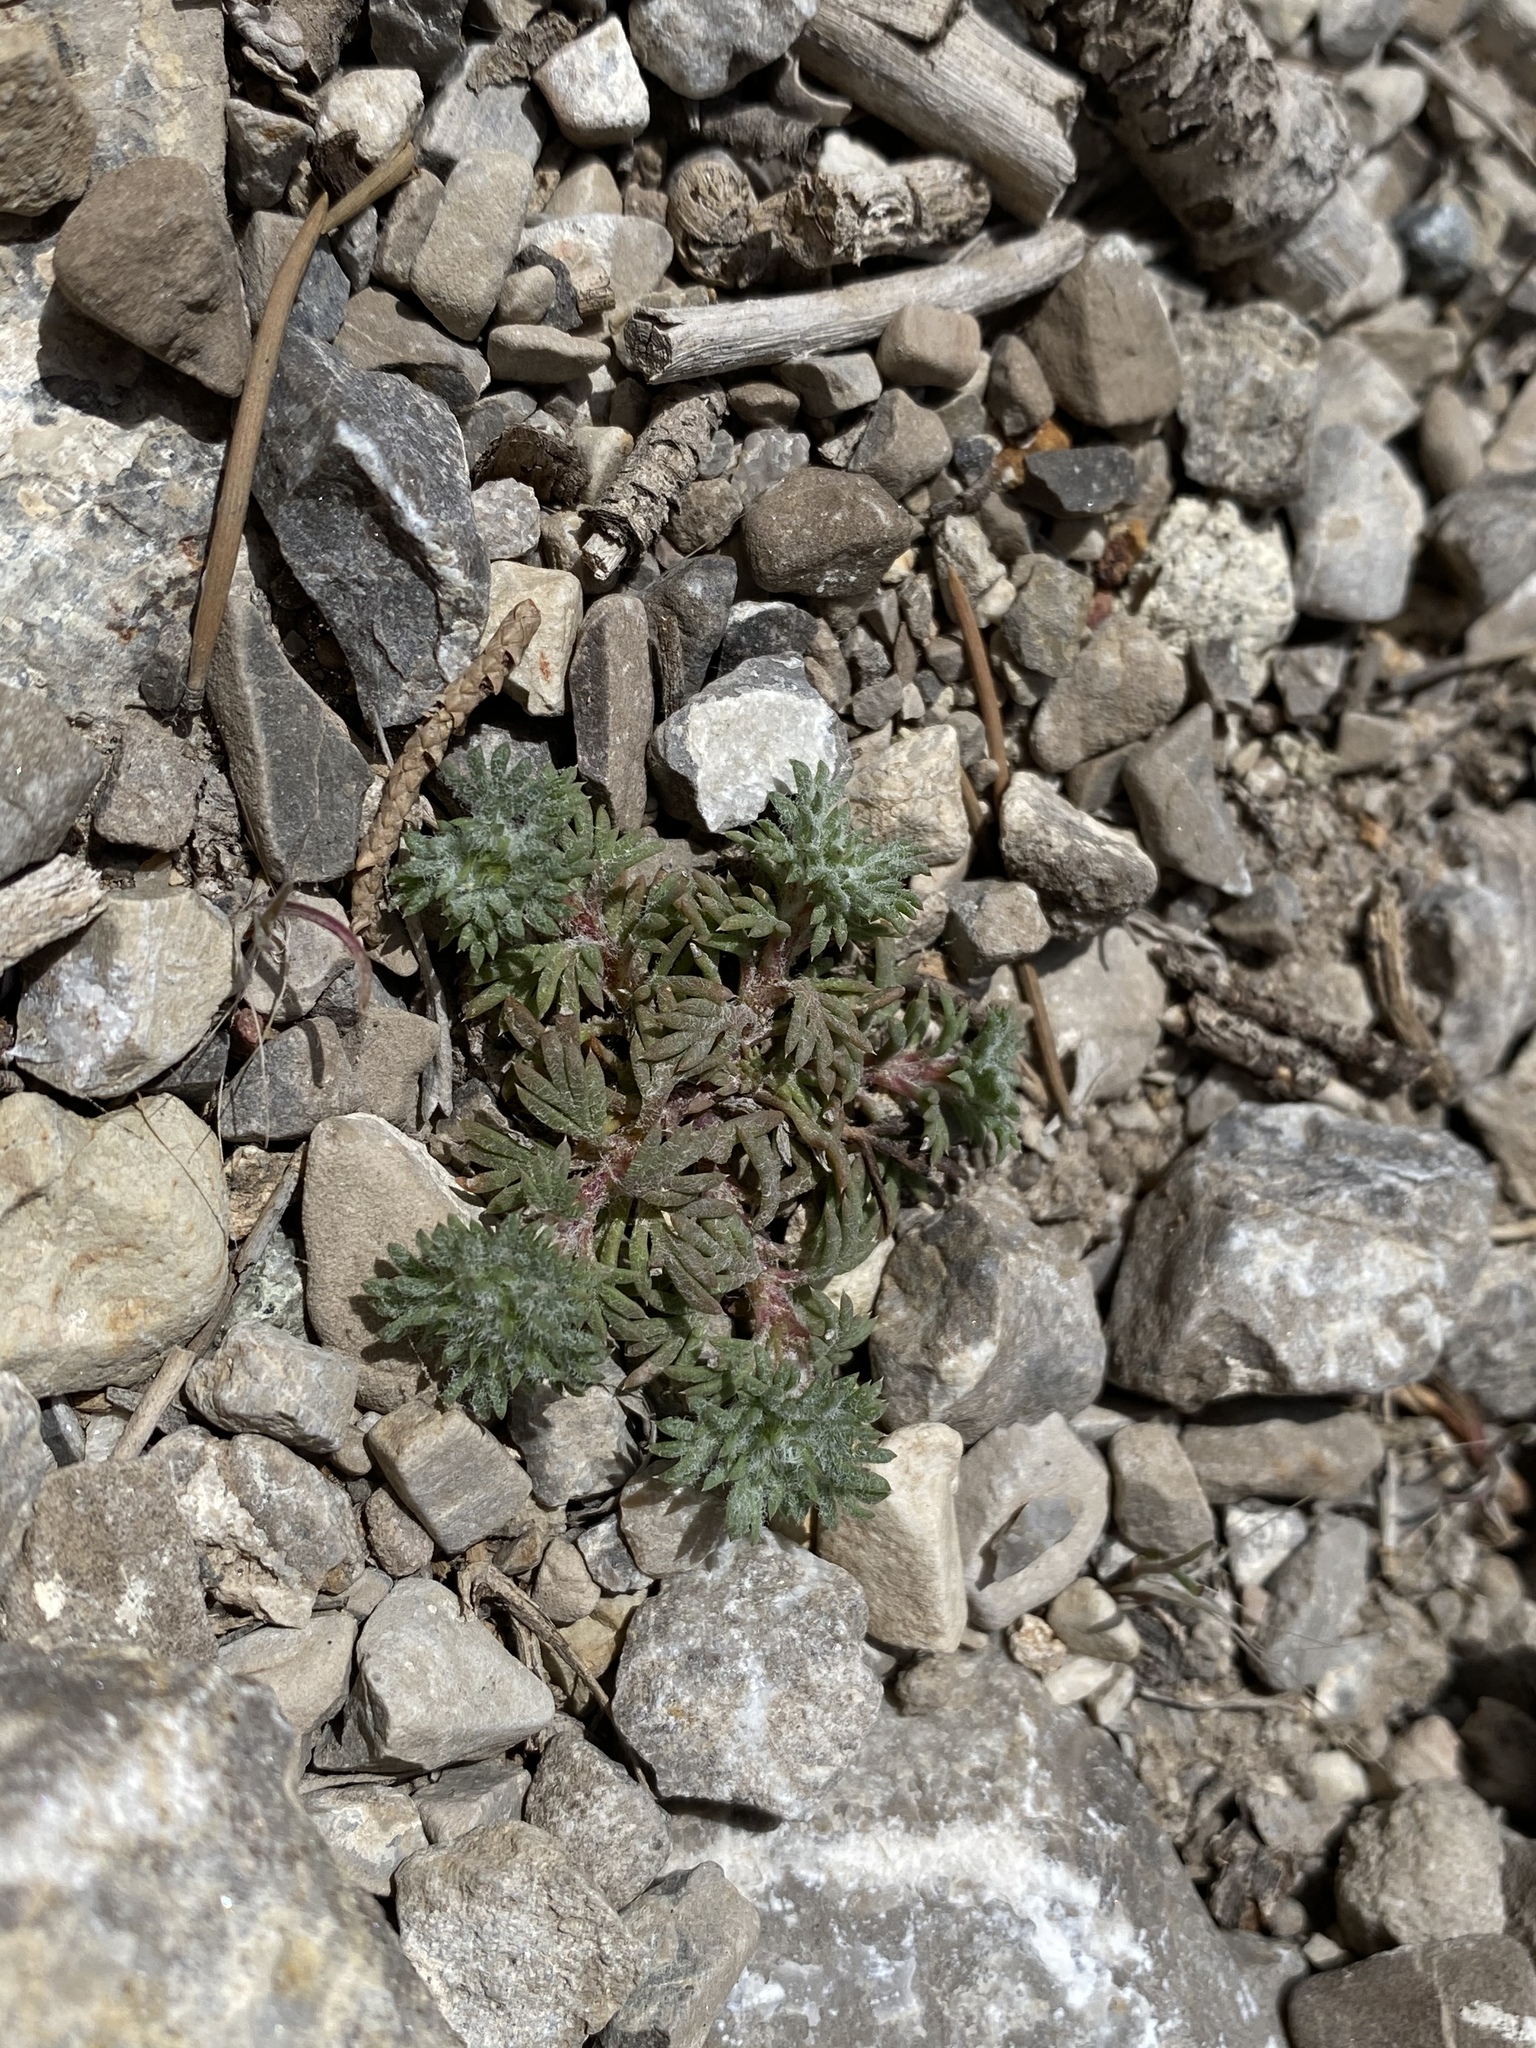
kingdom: Plantae
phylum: Tracheophyta
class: Magnoliopsida
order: Ericales
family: Polemoniaceae
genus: Ipomopsis
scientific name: Ipomopsis congesta
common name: Ball-head gilia
